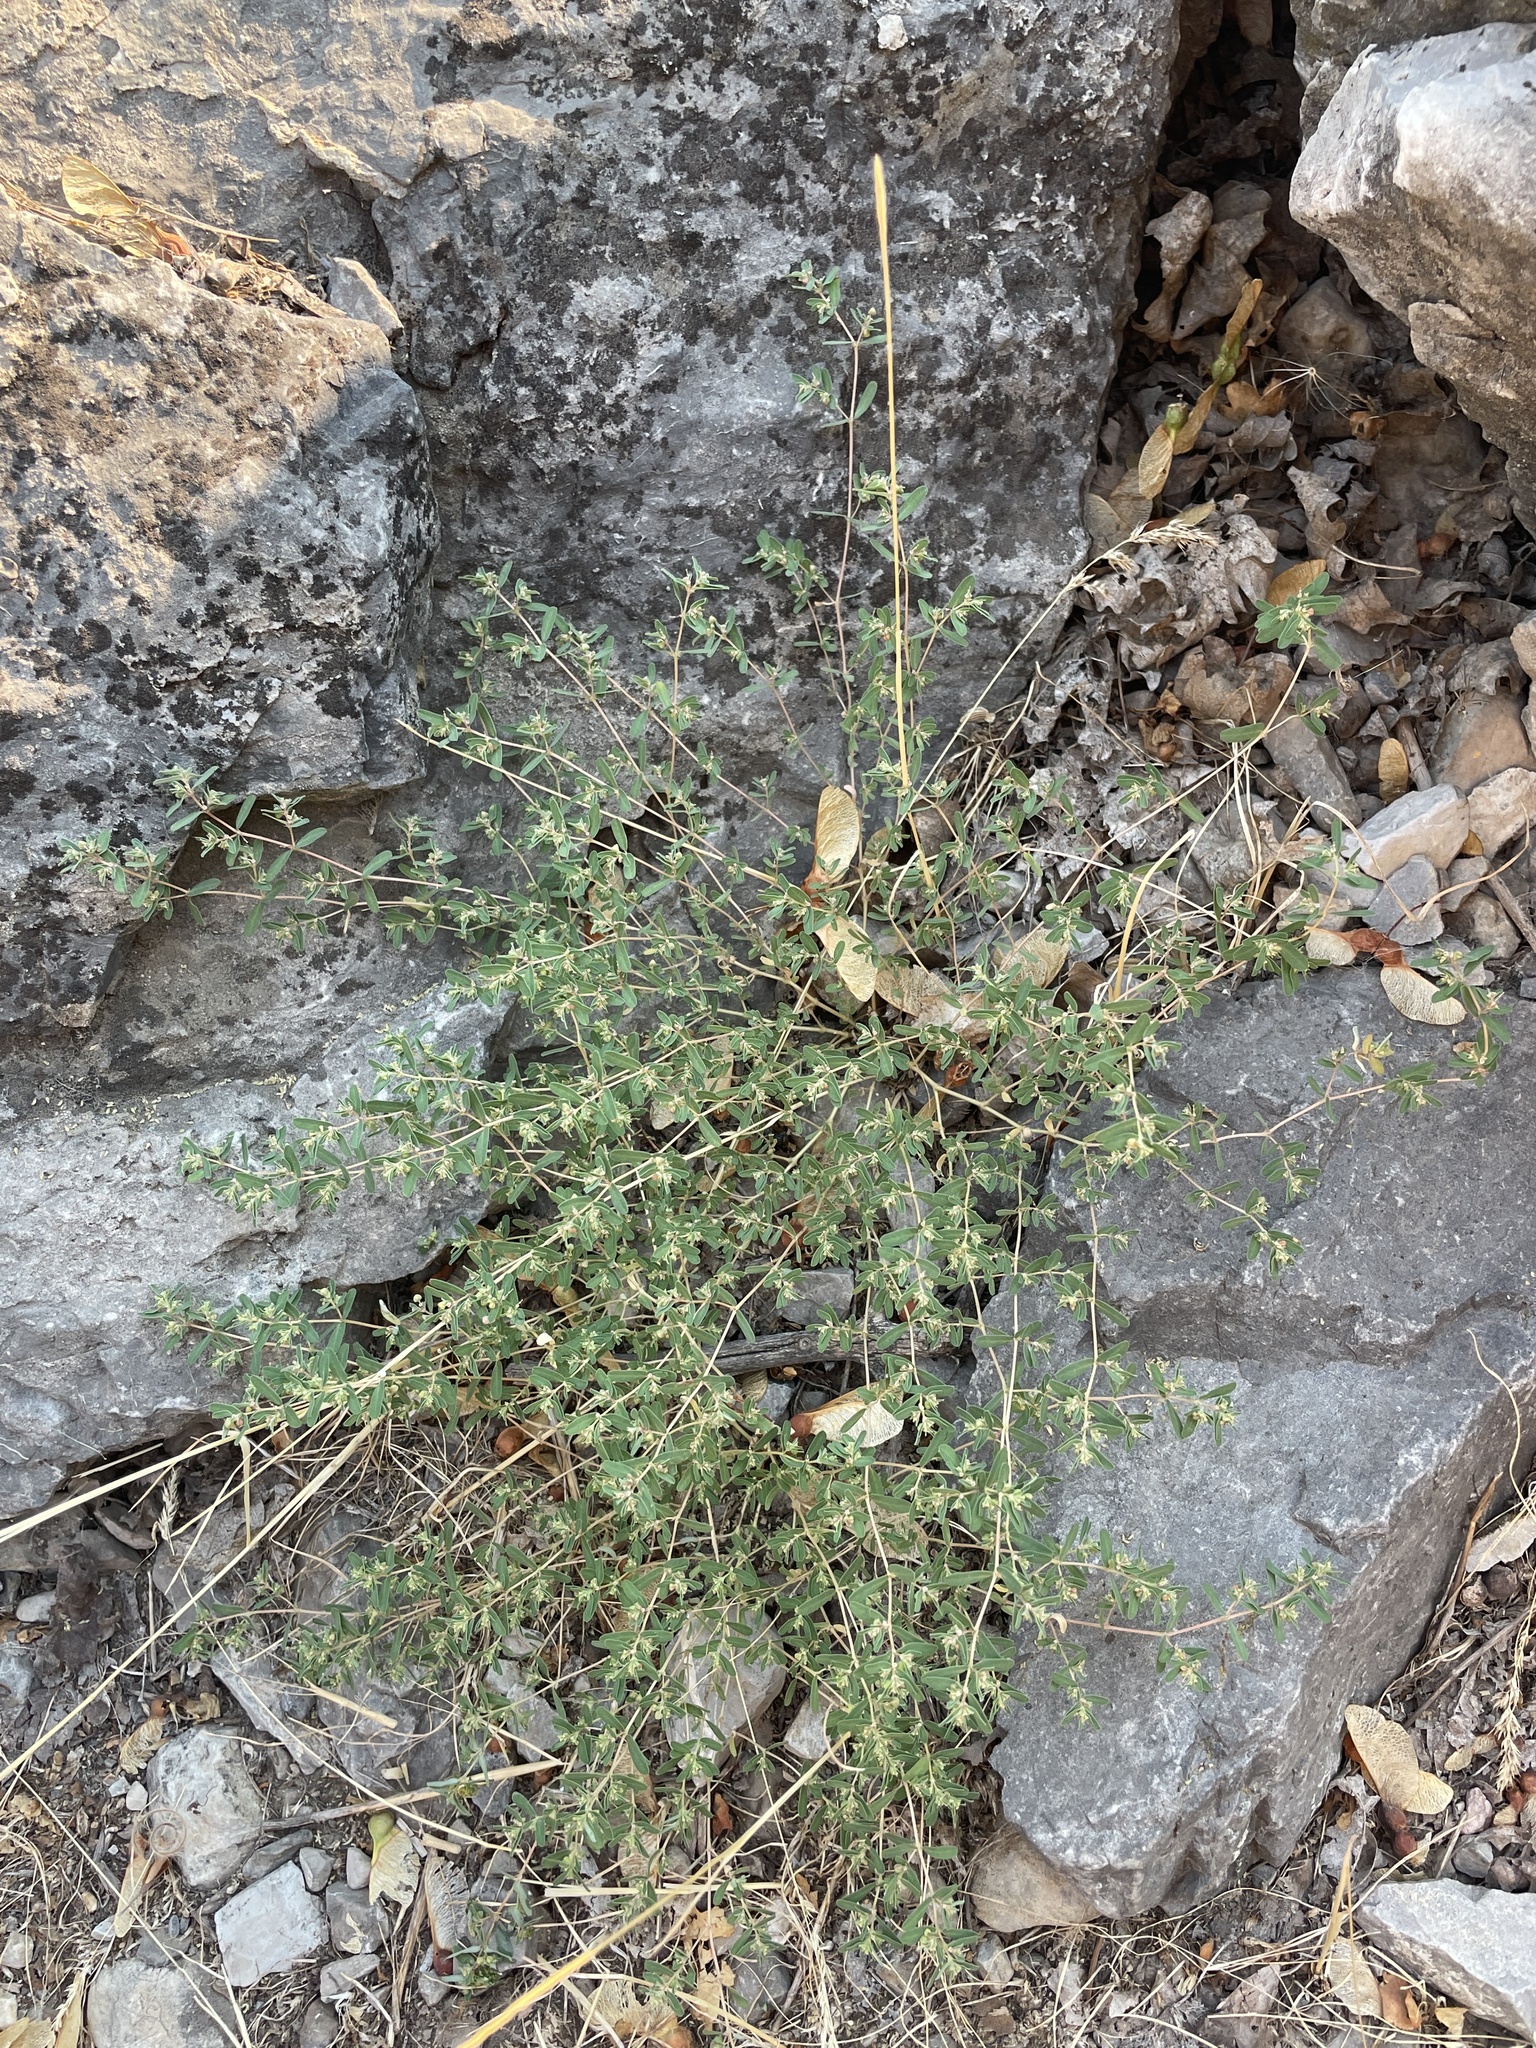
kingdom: Plantae
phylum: Tracheophyta
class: Magnoliopsida
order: Malpighiales
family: Euphorbiaceae
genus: Euphorbia
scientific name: Euphorbia glyptosperma
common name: Corrugate-seeded spurge
